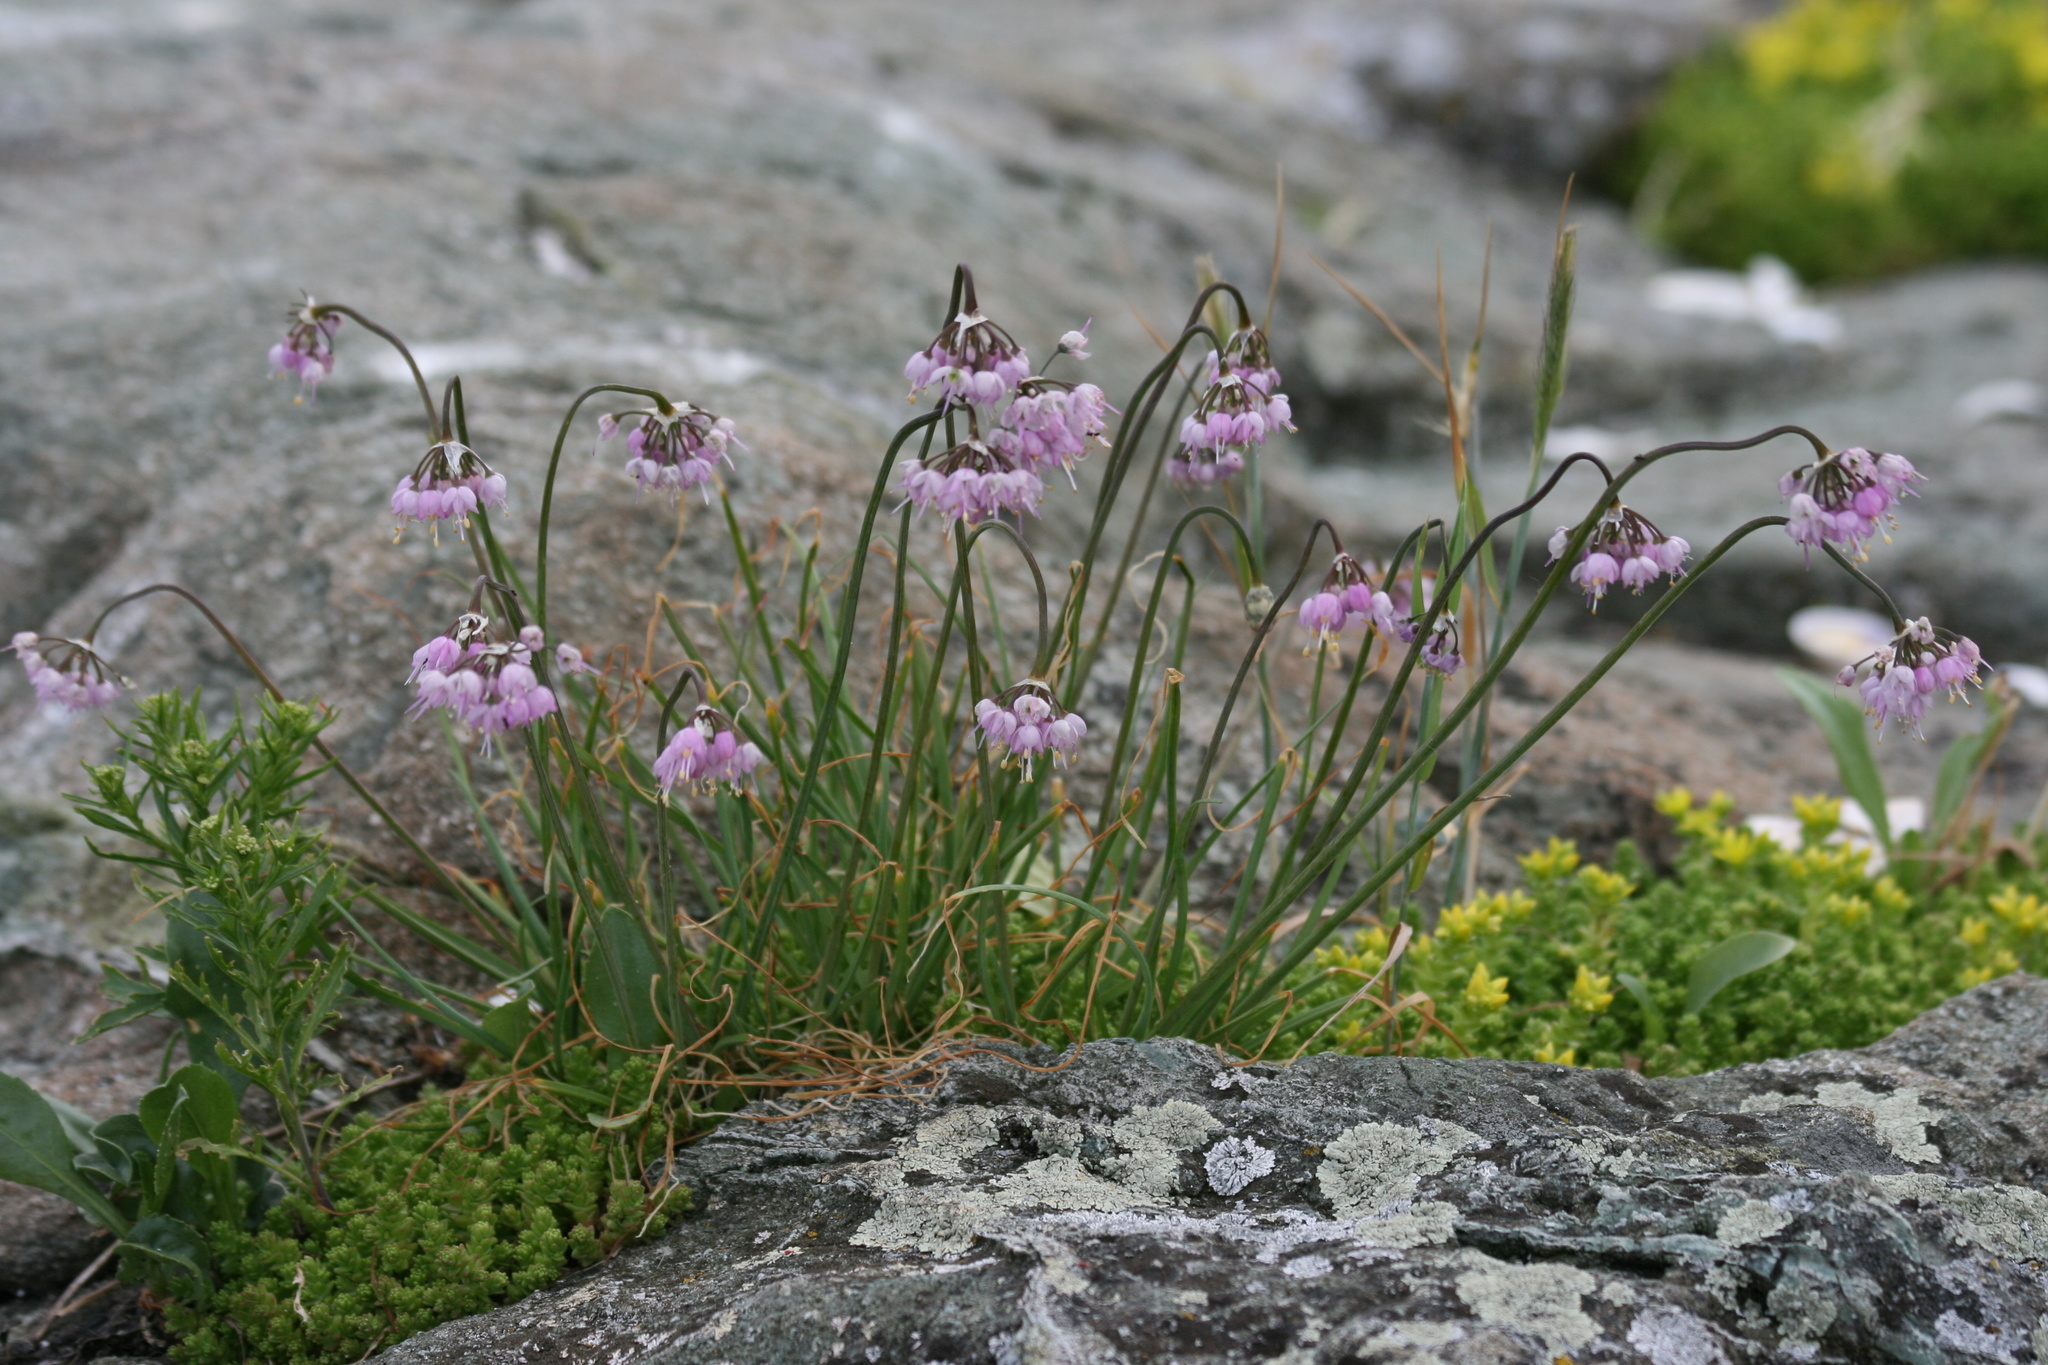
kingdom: Plantae
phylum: Tracheophyta
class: Liliopsida
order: Asparagales
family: Amaryllidaceae
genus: Allium
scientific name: Allium cernuum
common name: Nodding onion
